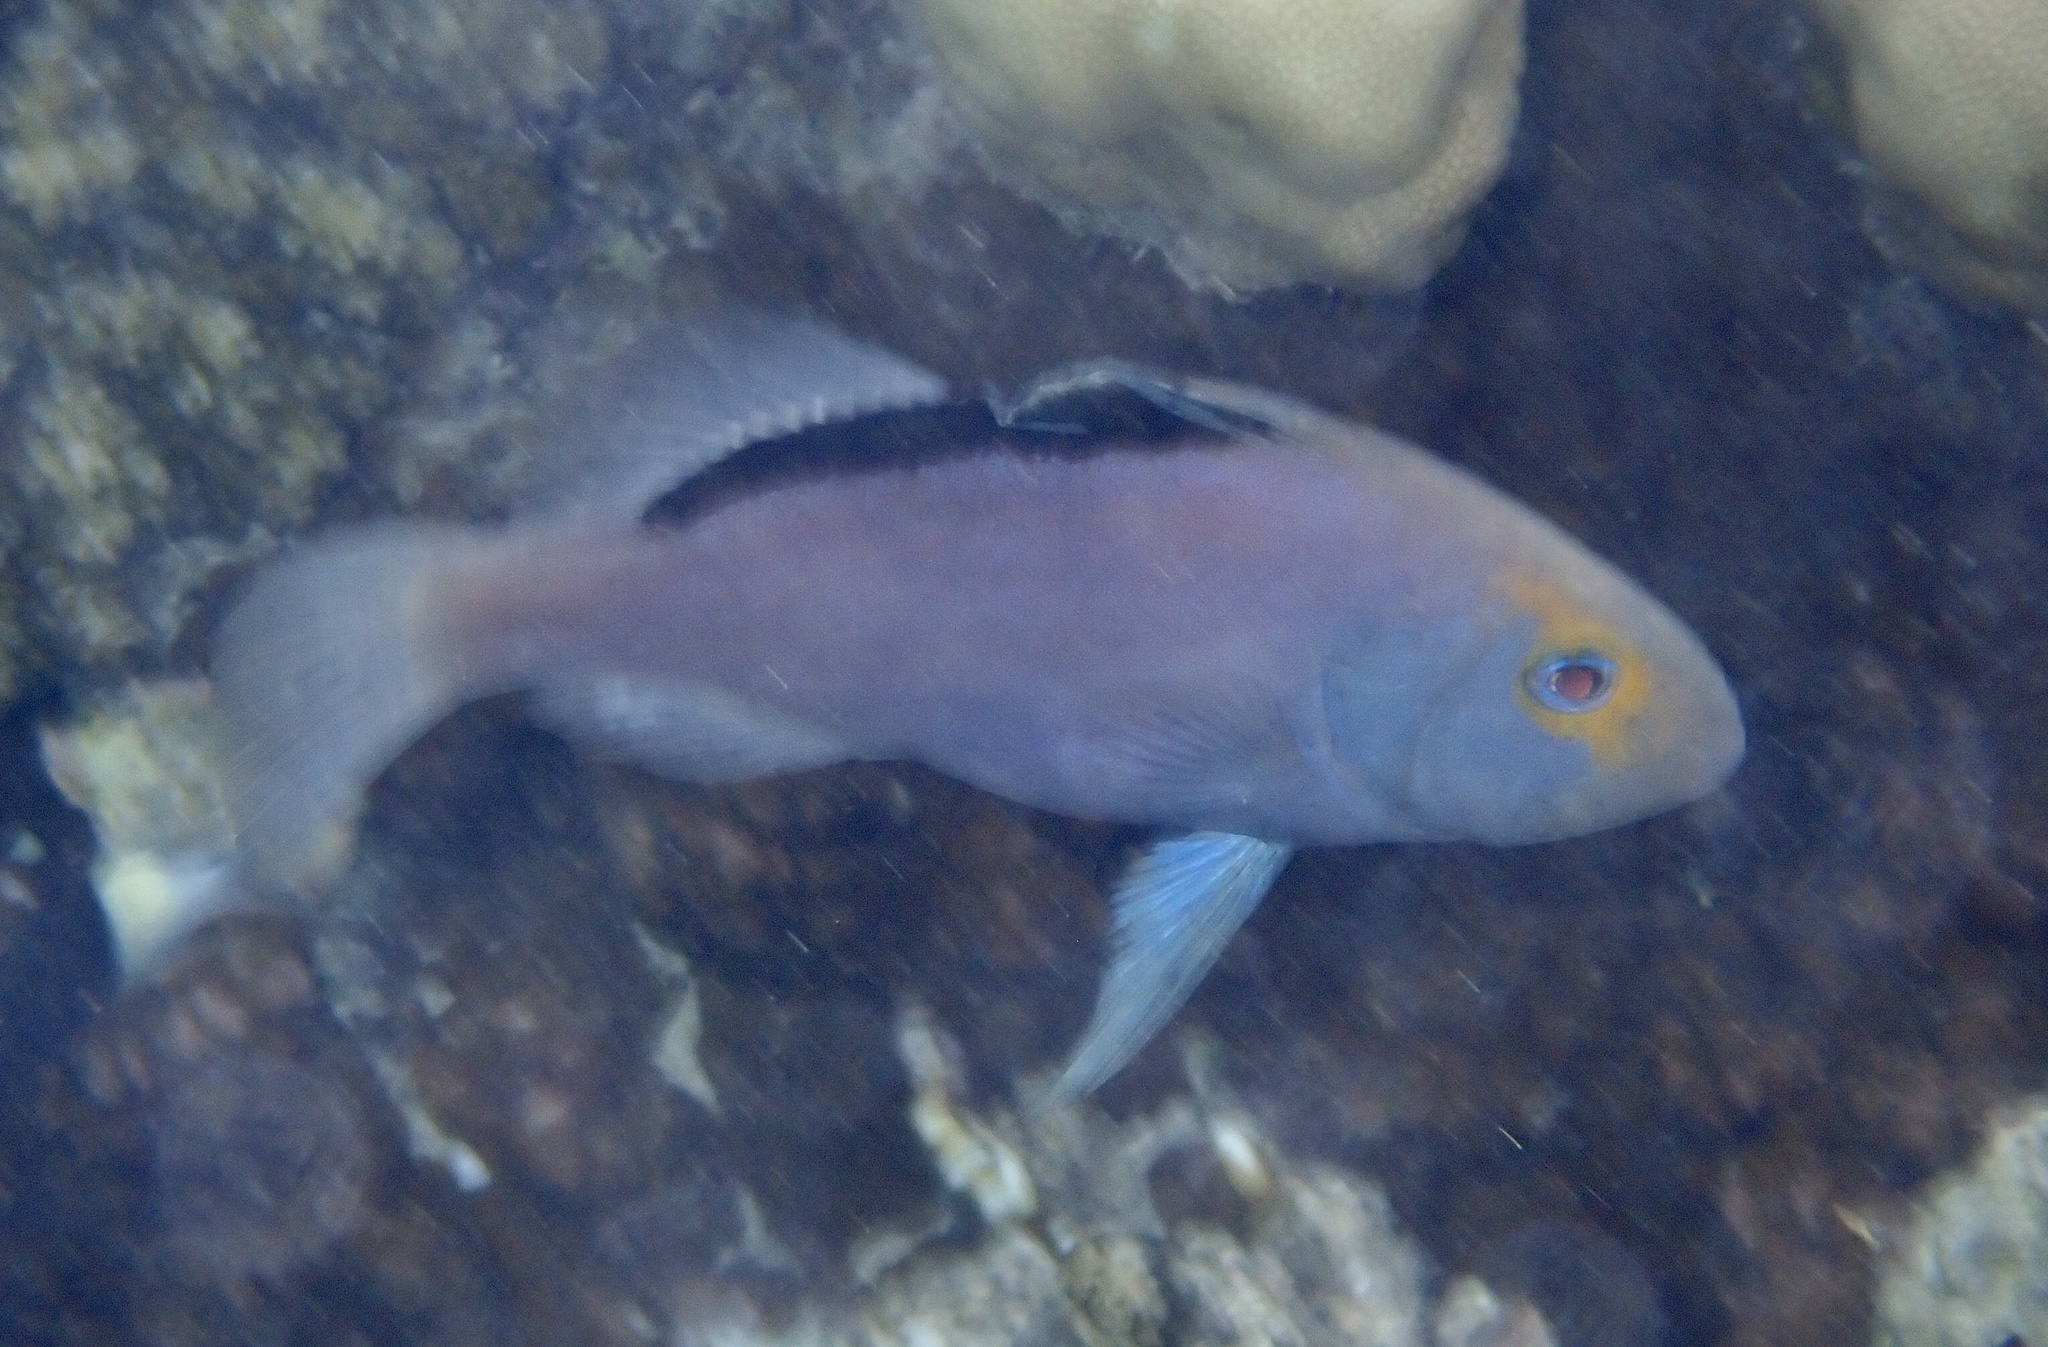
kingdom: Animalia
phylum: Chordata
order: Perciformes
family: Serranidae
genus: Diploprion
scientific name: Diploprion drachi
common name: Yellowface soapfish
